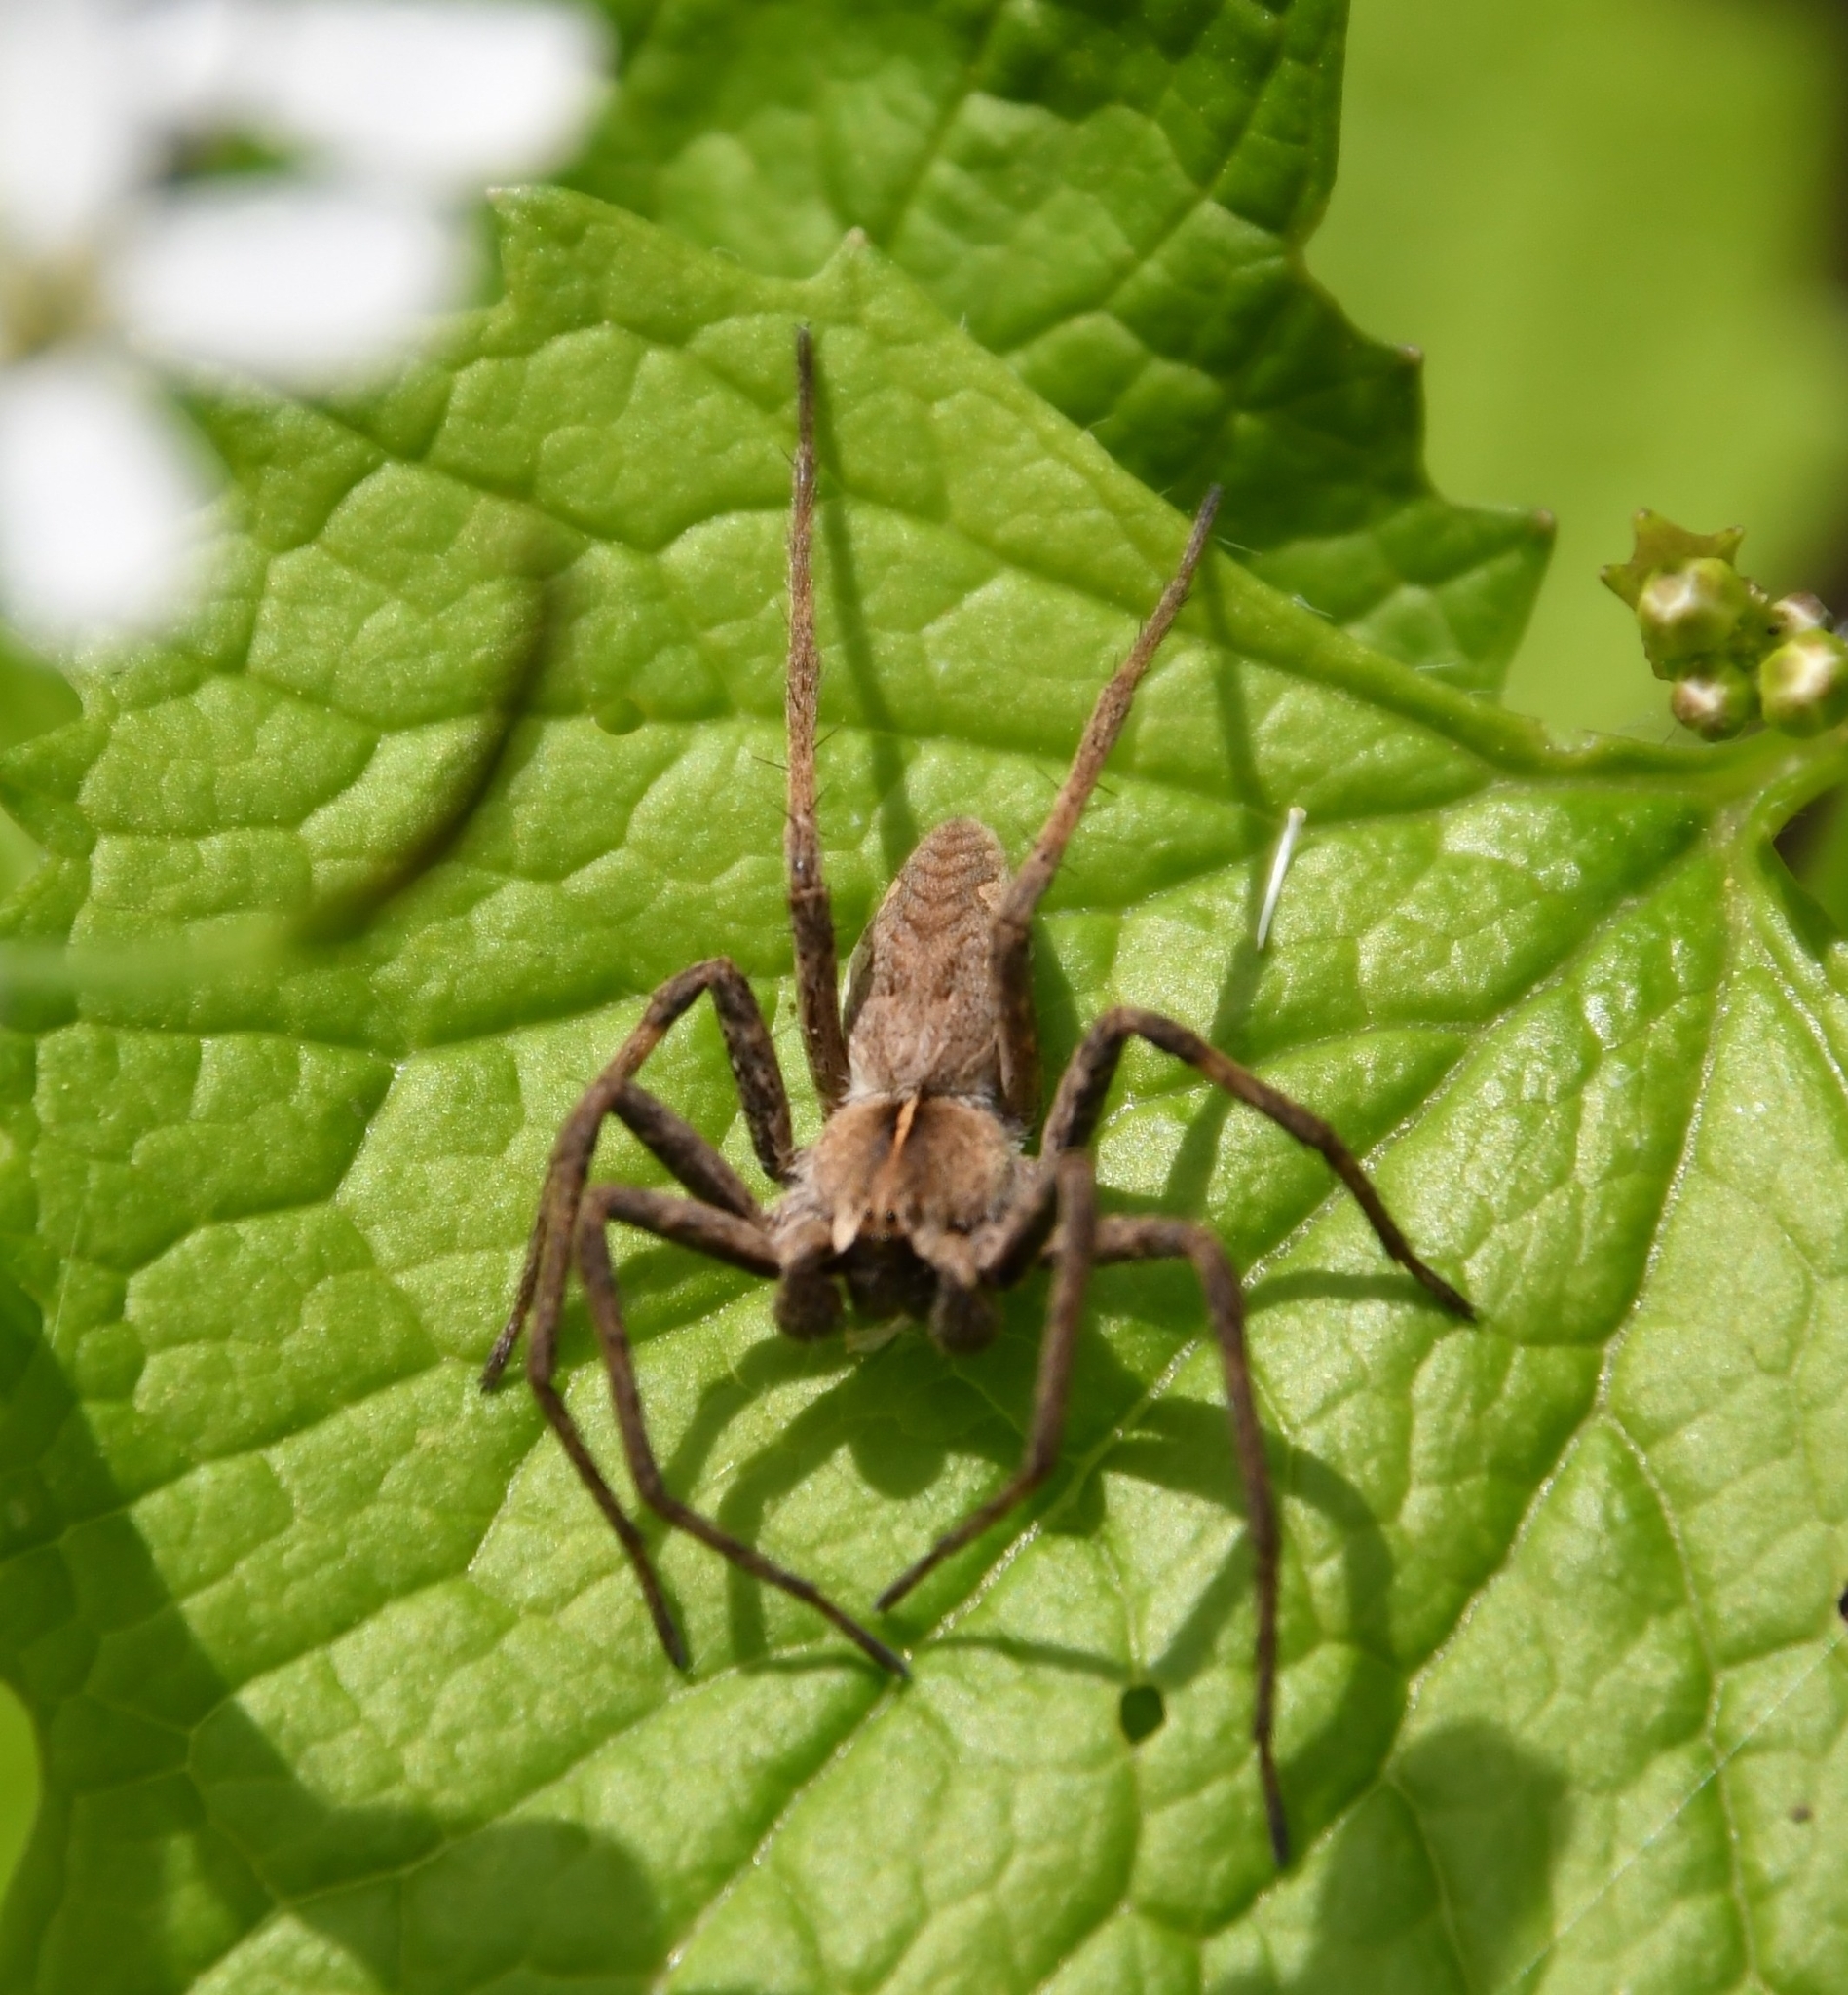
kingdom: Animalia
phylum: Arthropoda
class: Arachnida
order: Araneae
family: Pisauridae
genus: Pisaura
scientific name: Pisaura
